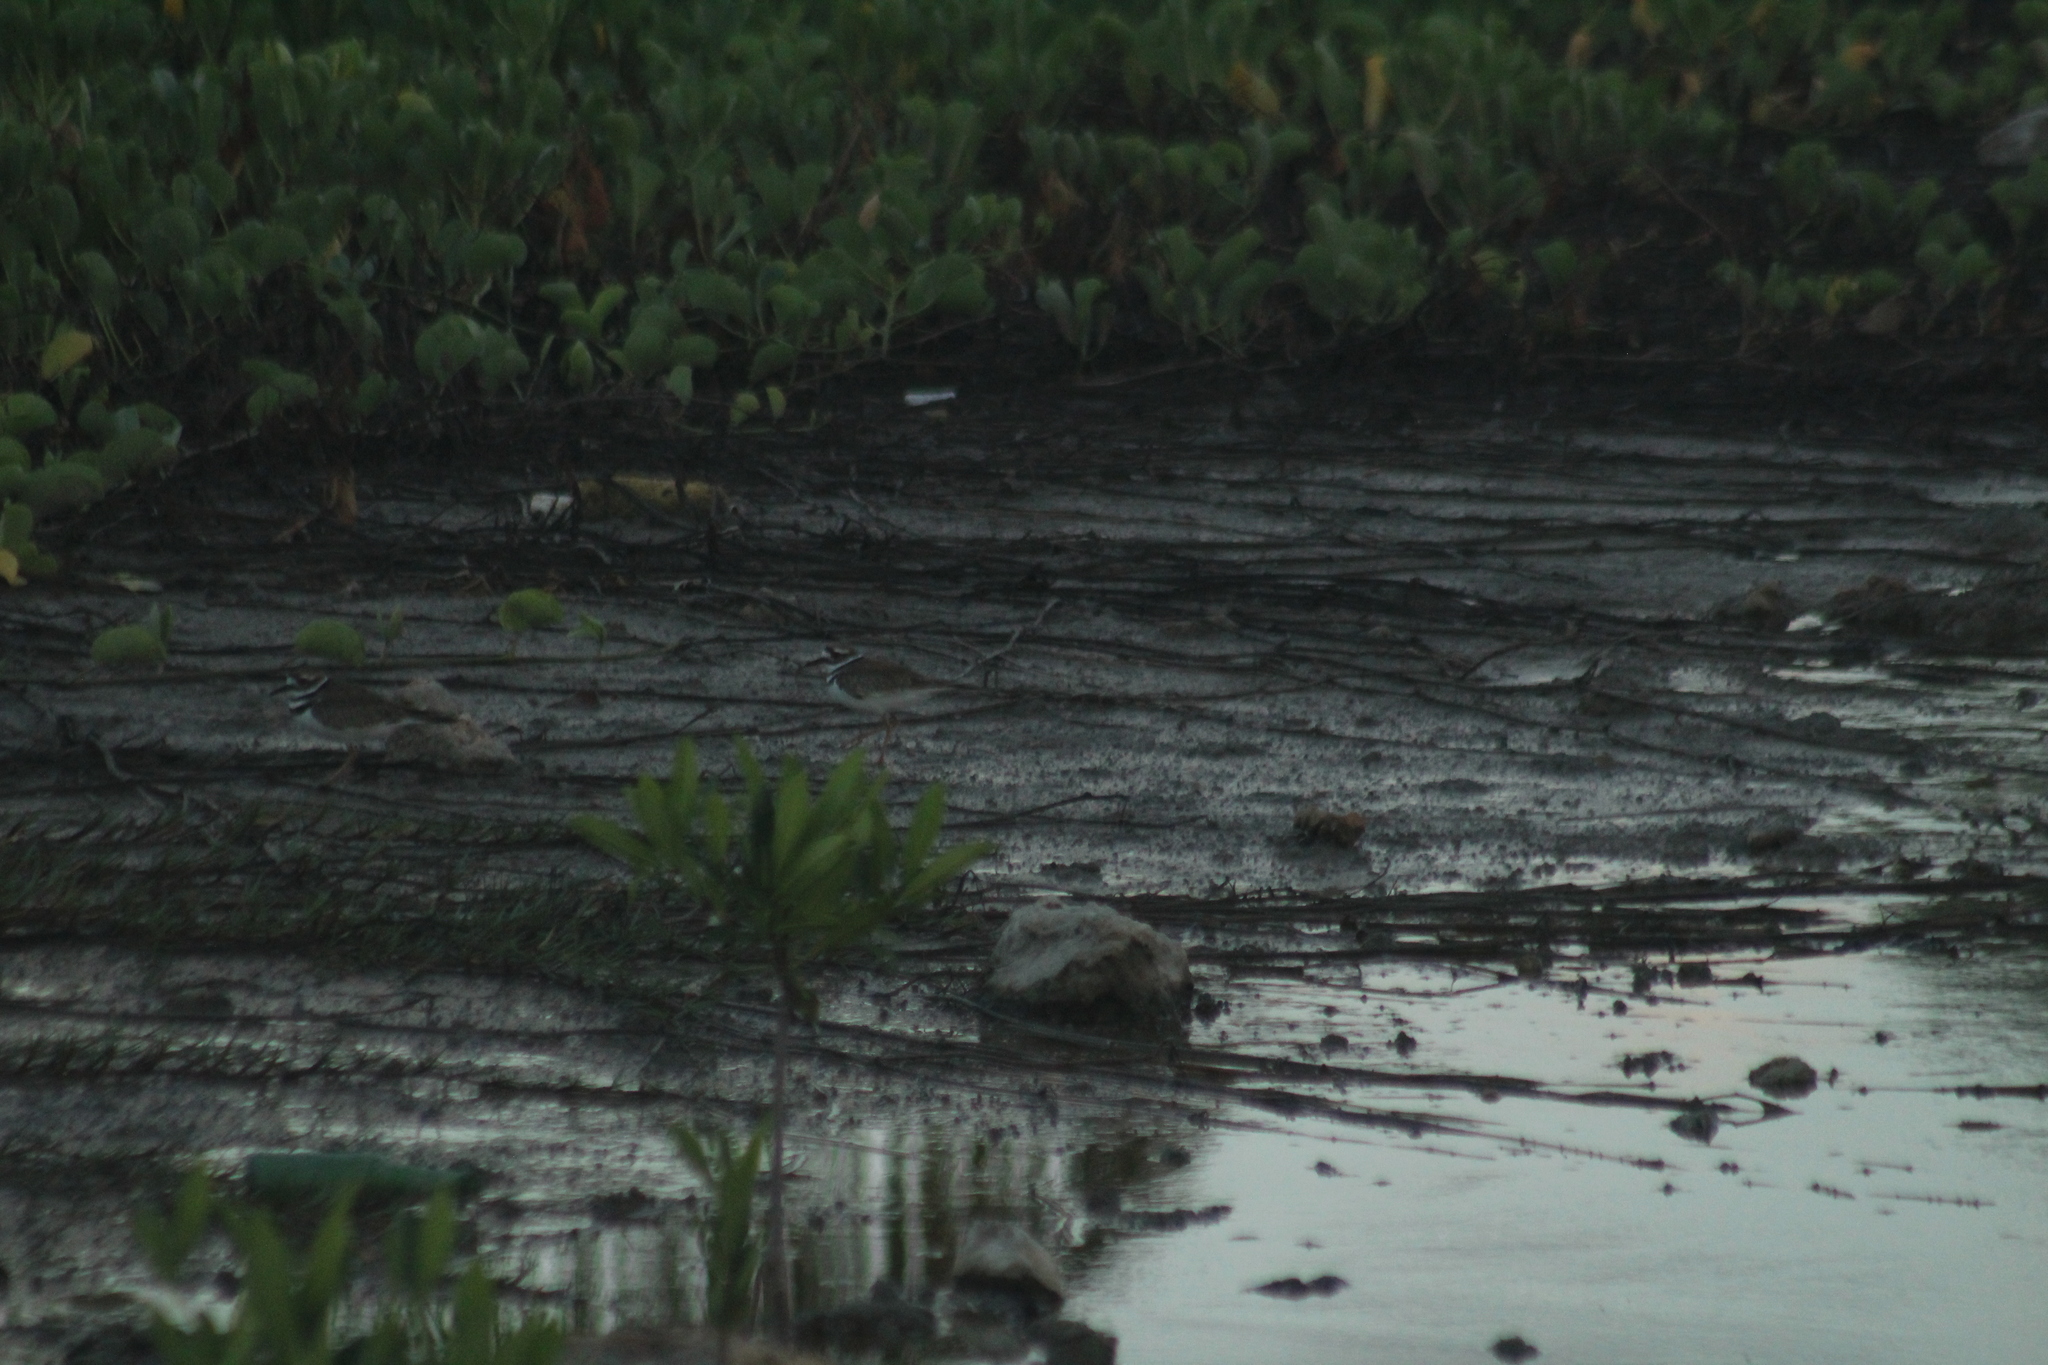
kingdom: Animalia
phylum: Chordata
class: Aves
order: Charadriiformes
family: Charadriidae
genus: Charadrius
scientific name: Charadrius vociferus
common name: Killdeer
